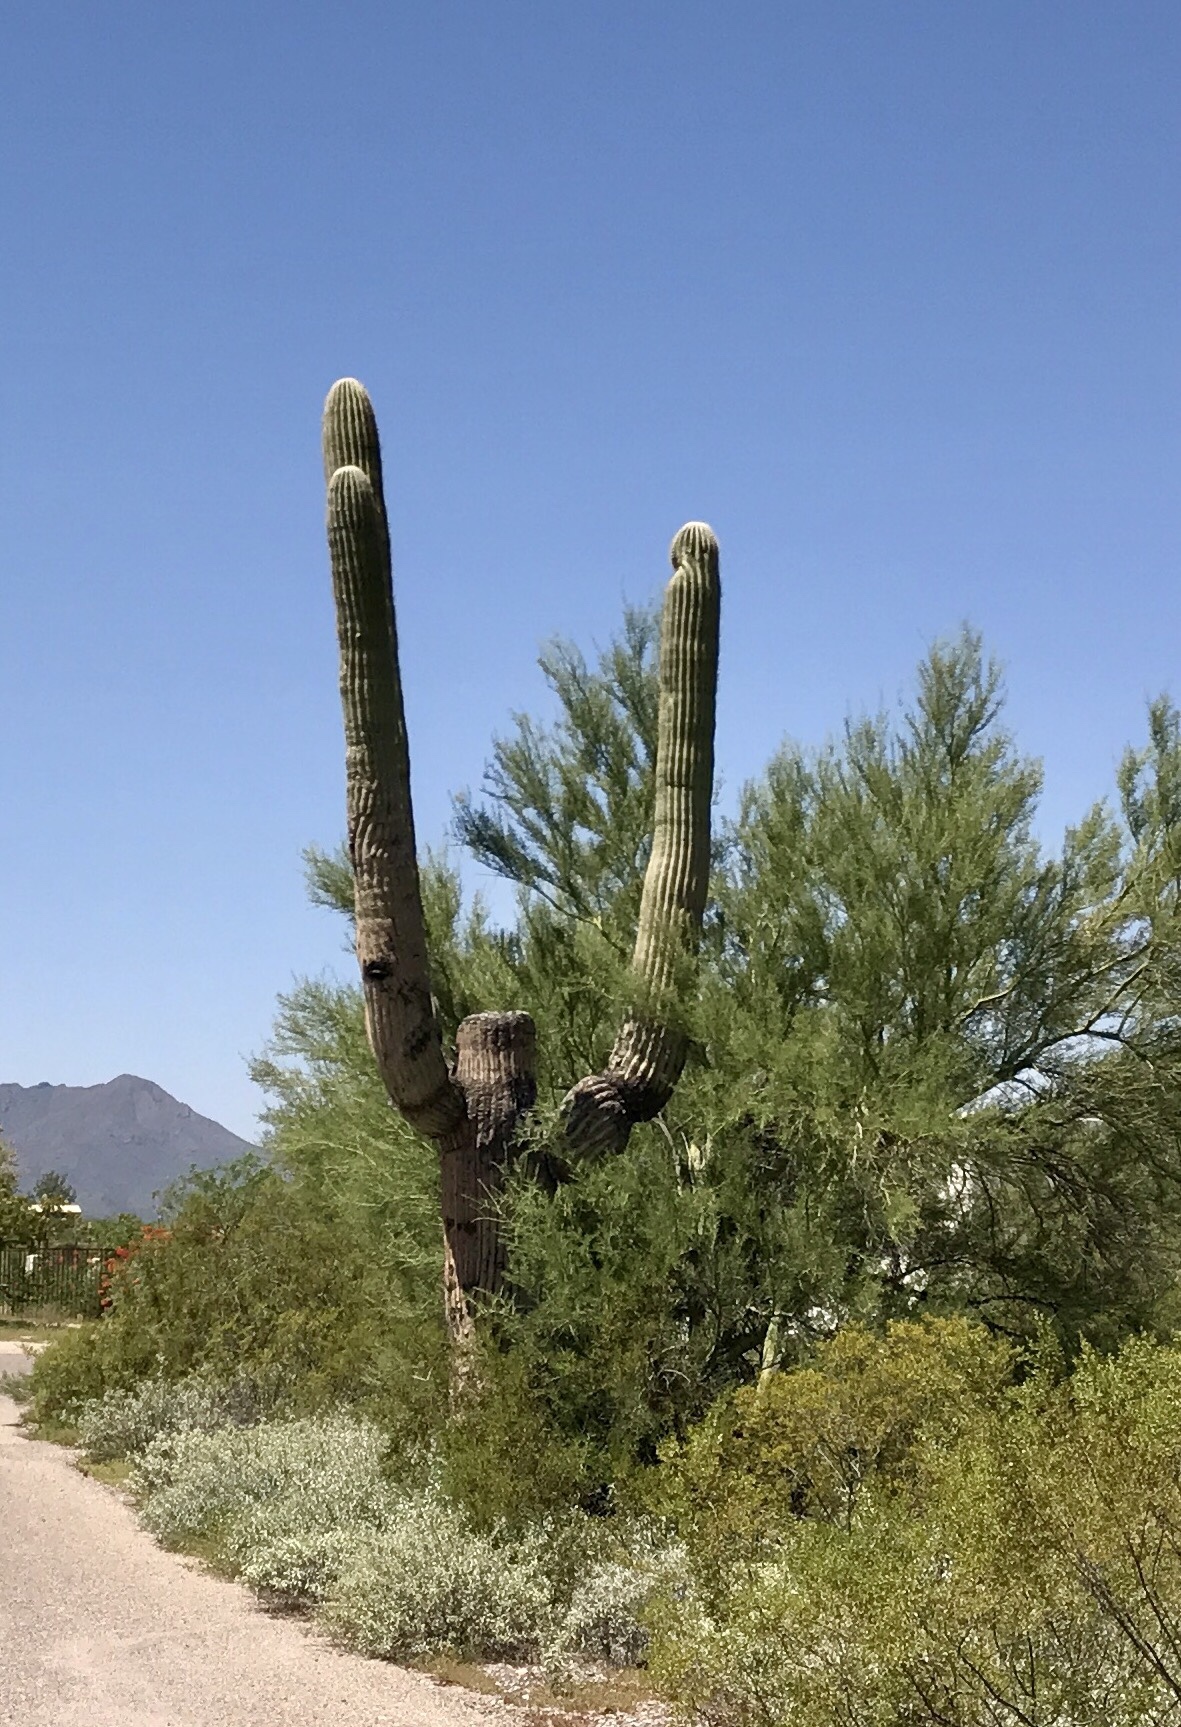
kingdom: Plantae
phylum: Tracheophyta
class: Magnoliopsida
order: Caryophyllales
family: Cactaceae
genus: Carnegiea
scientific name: Carnegiea gigantea
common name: Saguaro
